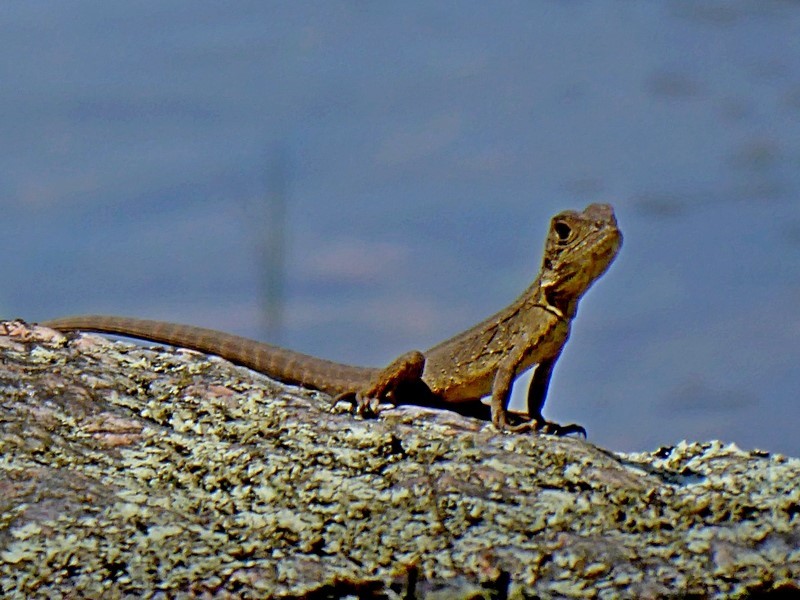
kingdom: Animalia
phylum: Chordata
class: Squamata
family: Agamidae
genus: Intellagama
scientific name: Intellagama lesueurii
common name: Eastern water dragon
